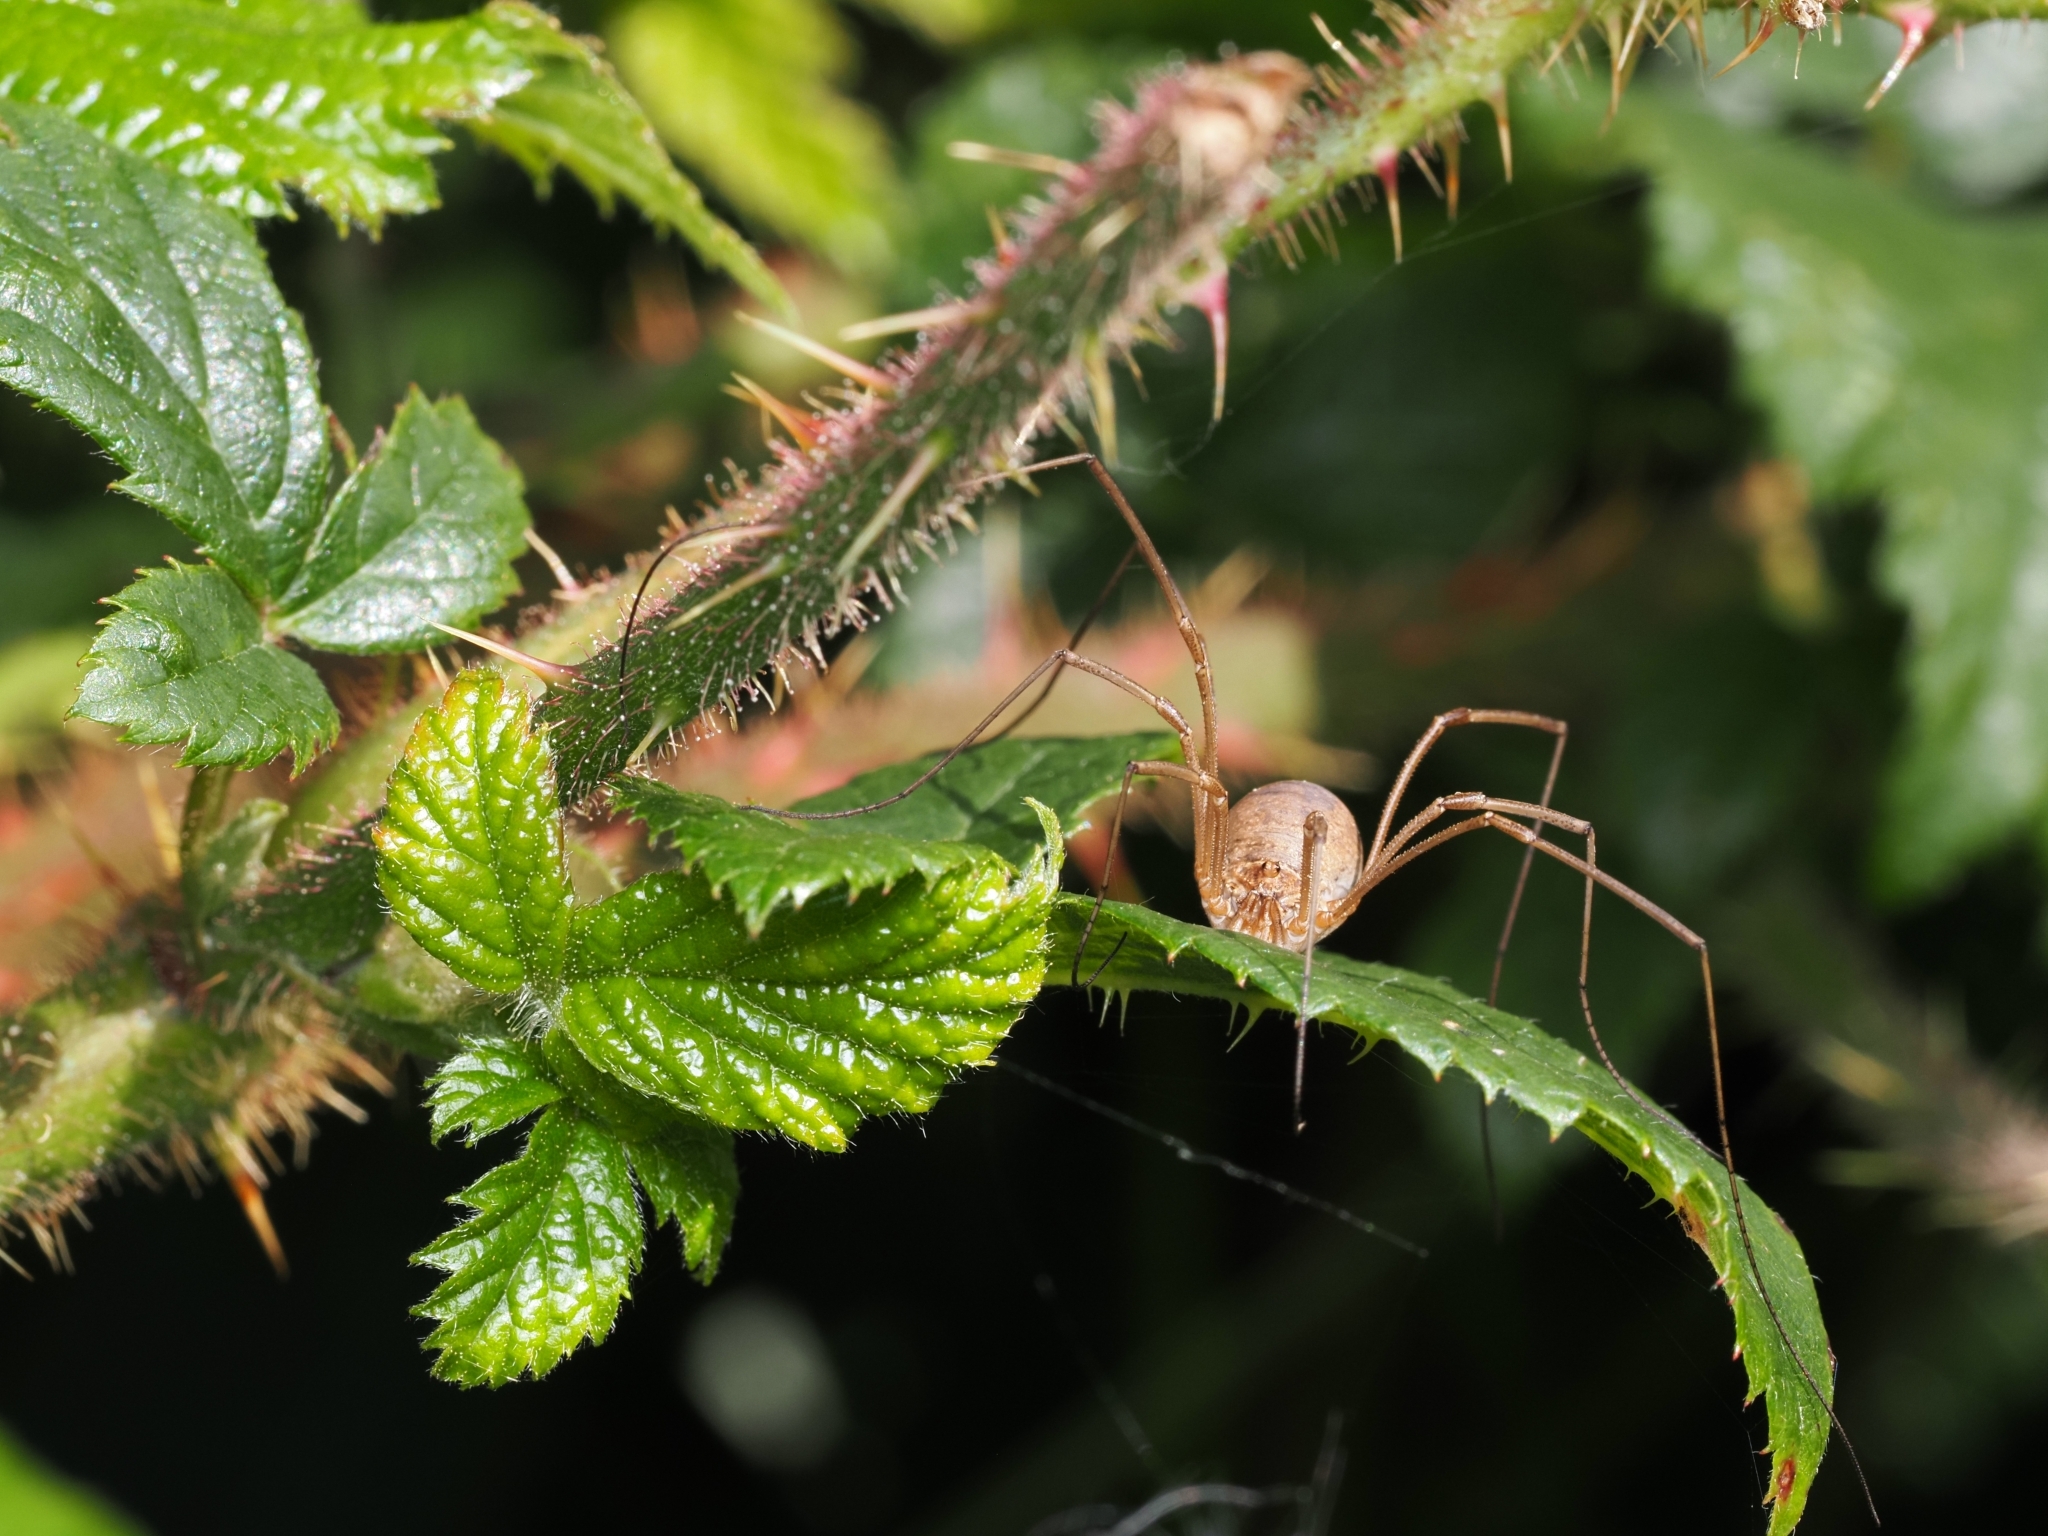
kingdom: Animalia
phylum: Arthropoda
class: Arachnida
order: Opiliones
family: Phalangiidae
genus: Phalangium
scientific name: Phalangium opilio
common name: Daddy longleg
